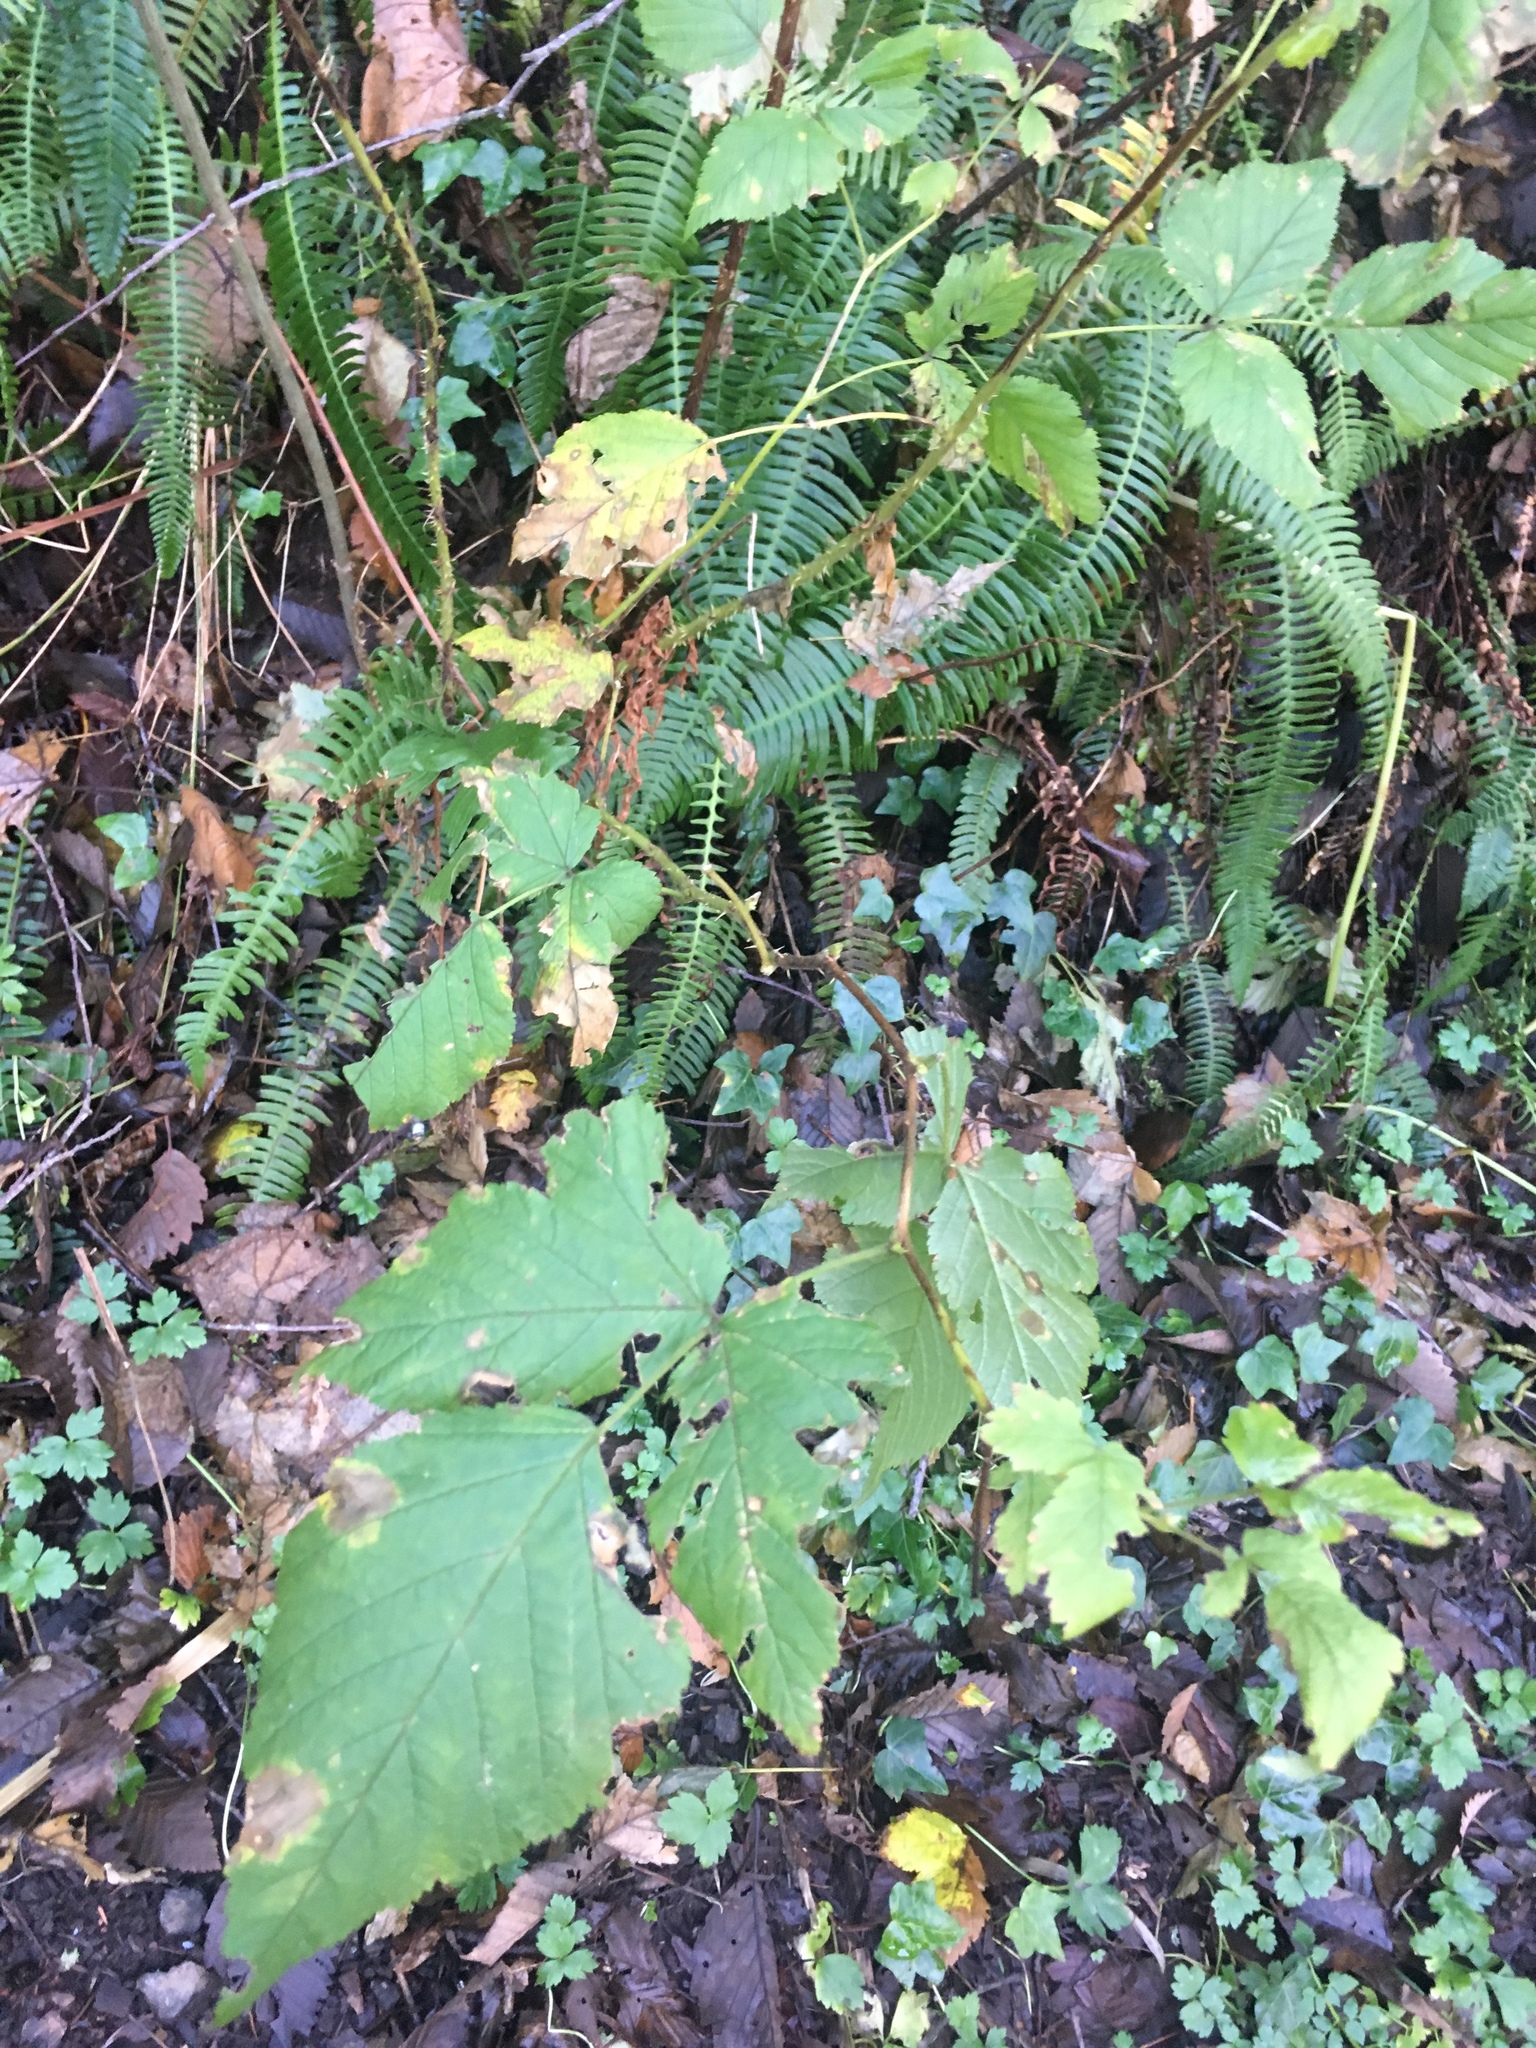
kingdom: Plantae
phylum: Tracheophyta
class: Magnoliopsida
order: Rosales
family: Rosaceae
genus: Rubus
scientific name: Rubus spectabilis
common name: Salmonberry
